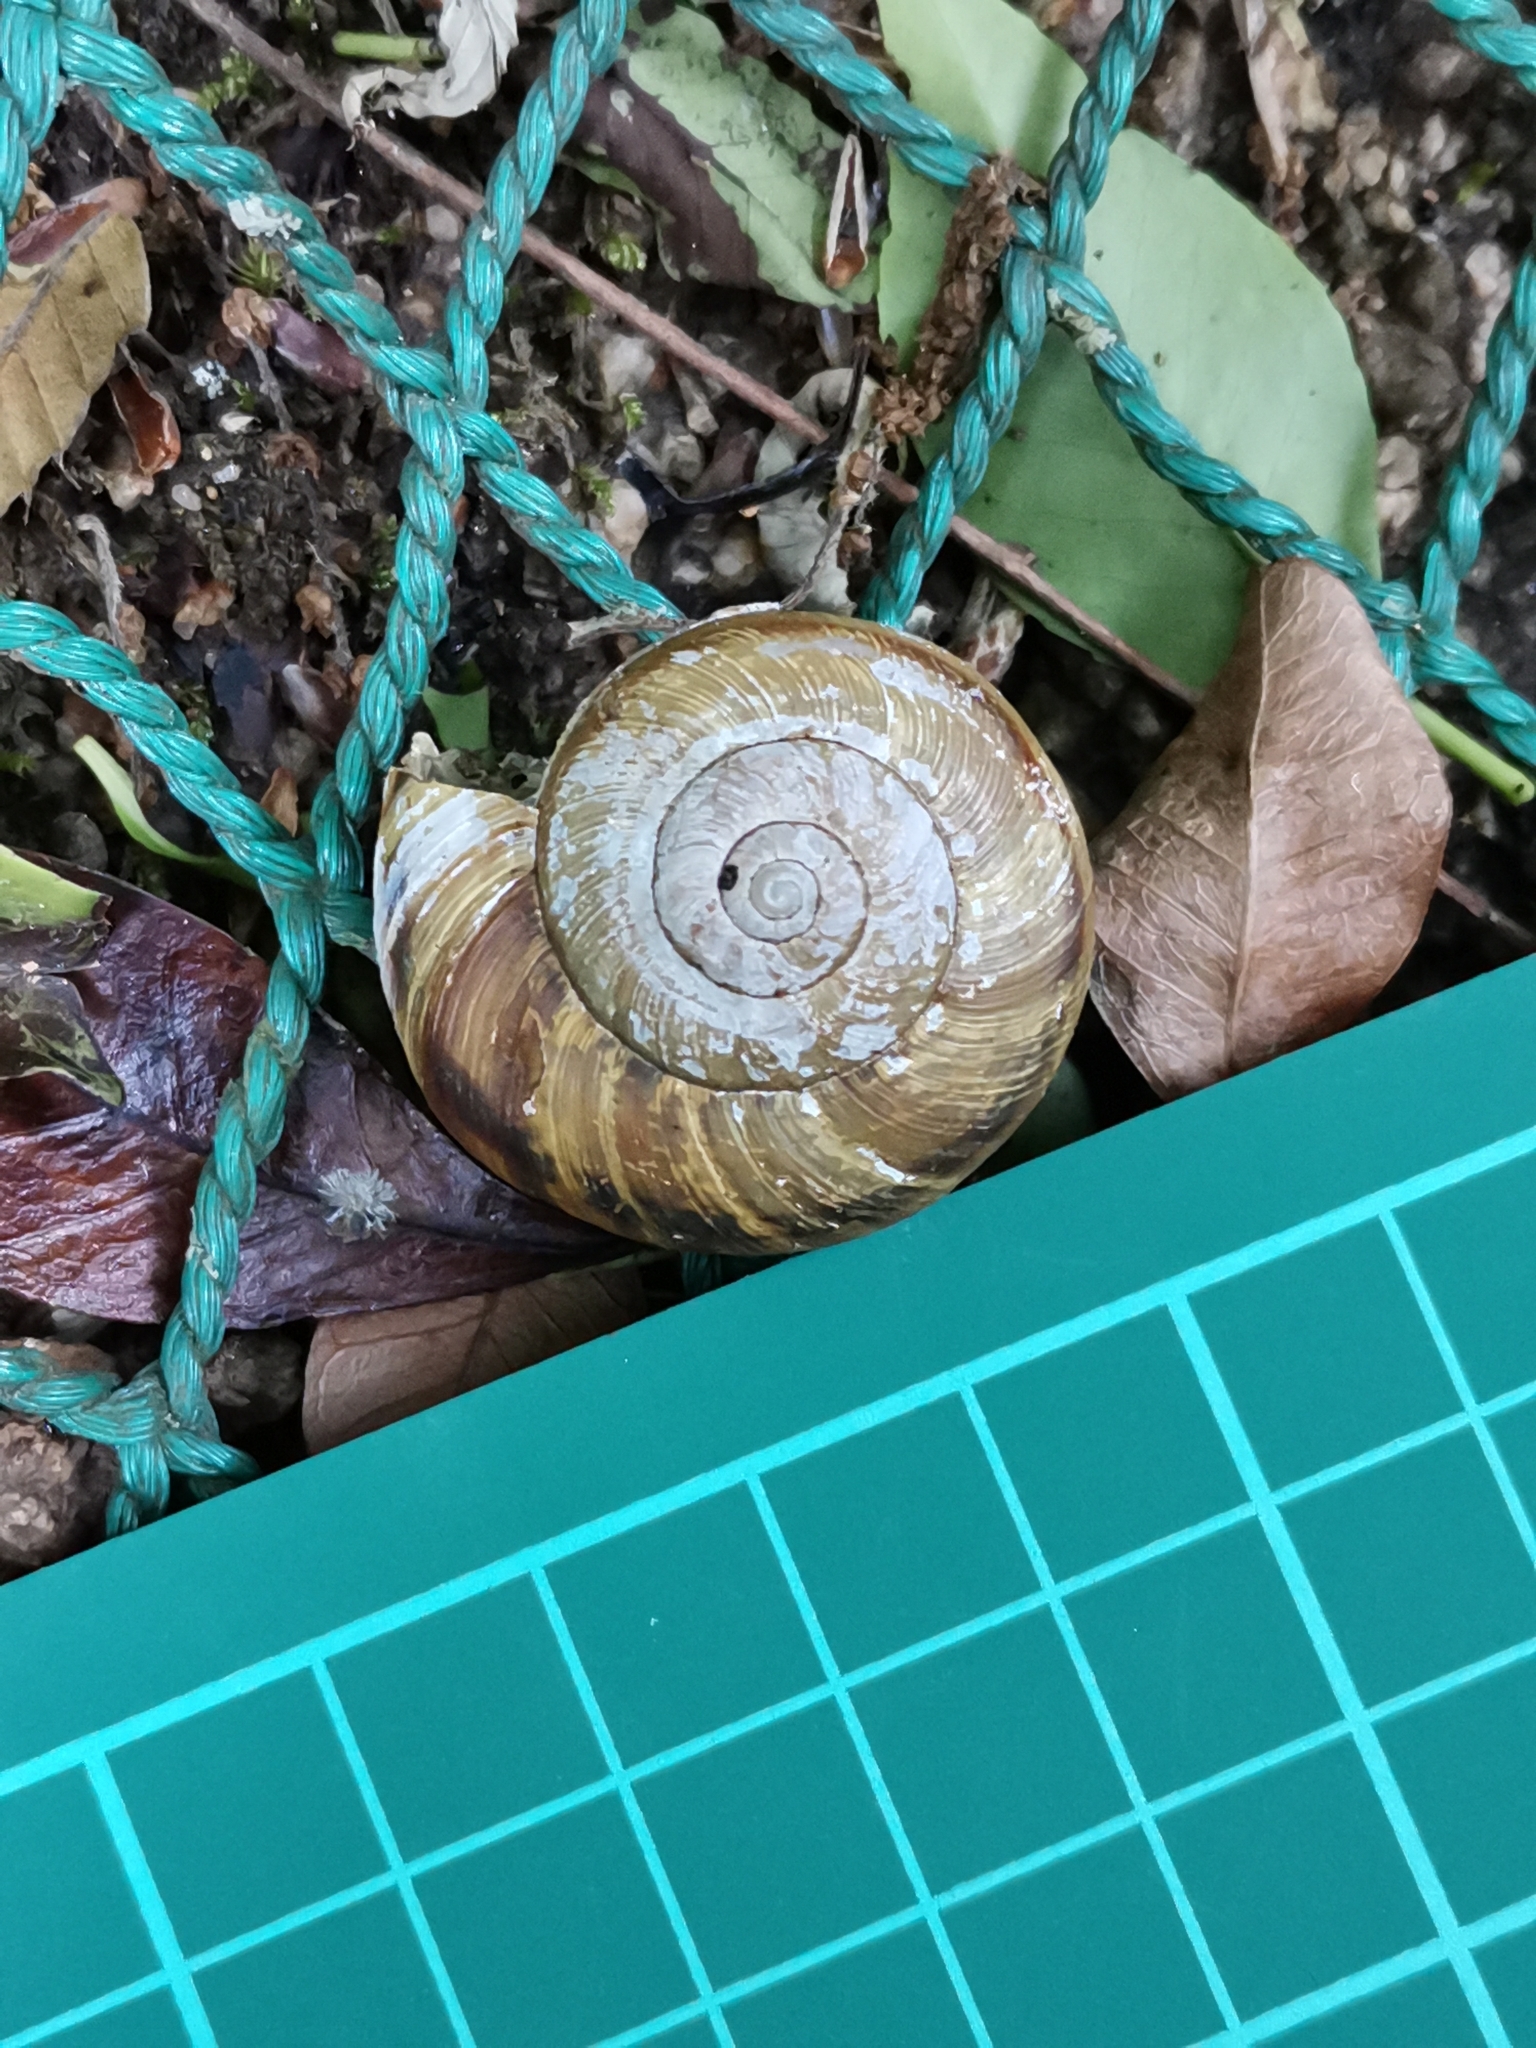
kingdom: Animalia
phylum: Mollusca
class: Gastropoda
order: Stylommatophora
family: Camaenidae
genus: Euhadra
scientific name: Euhadra sandai
